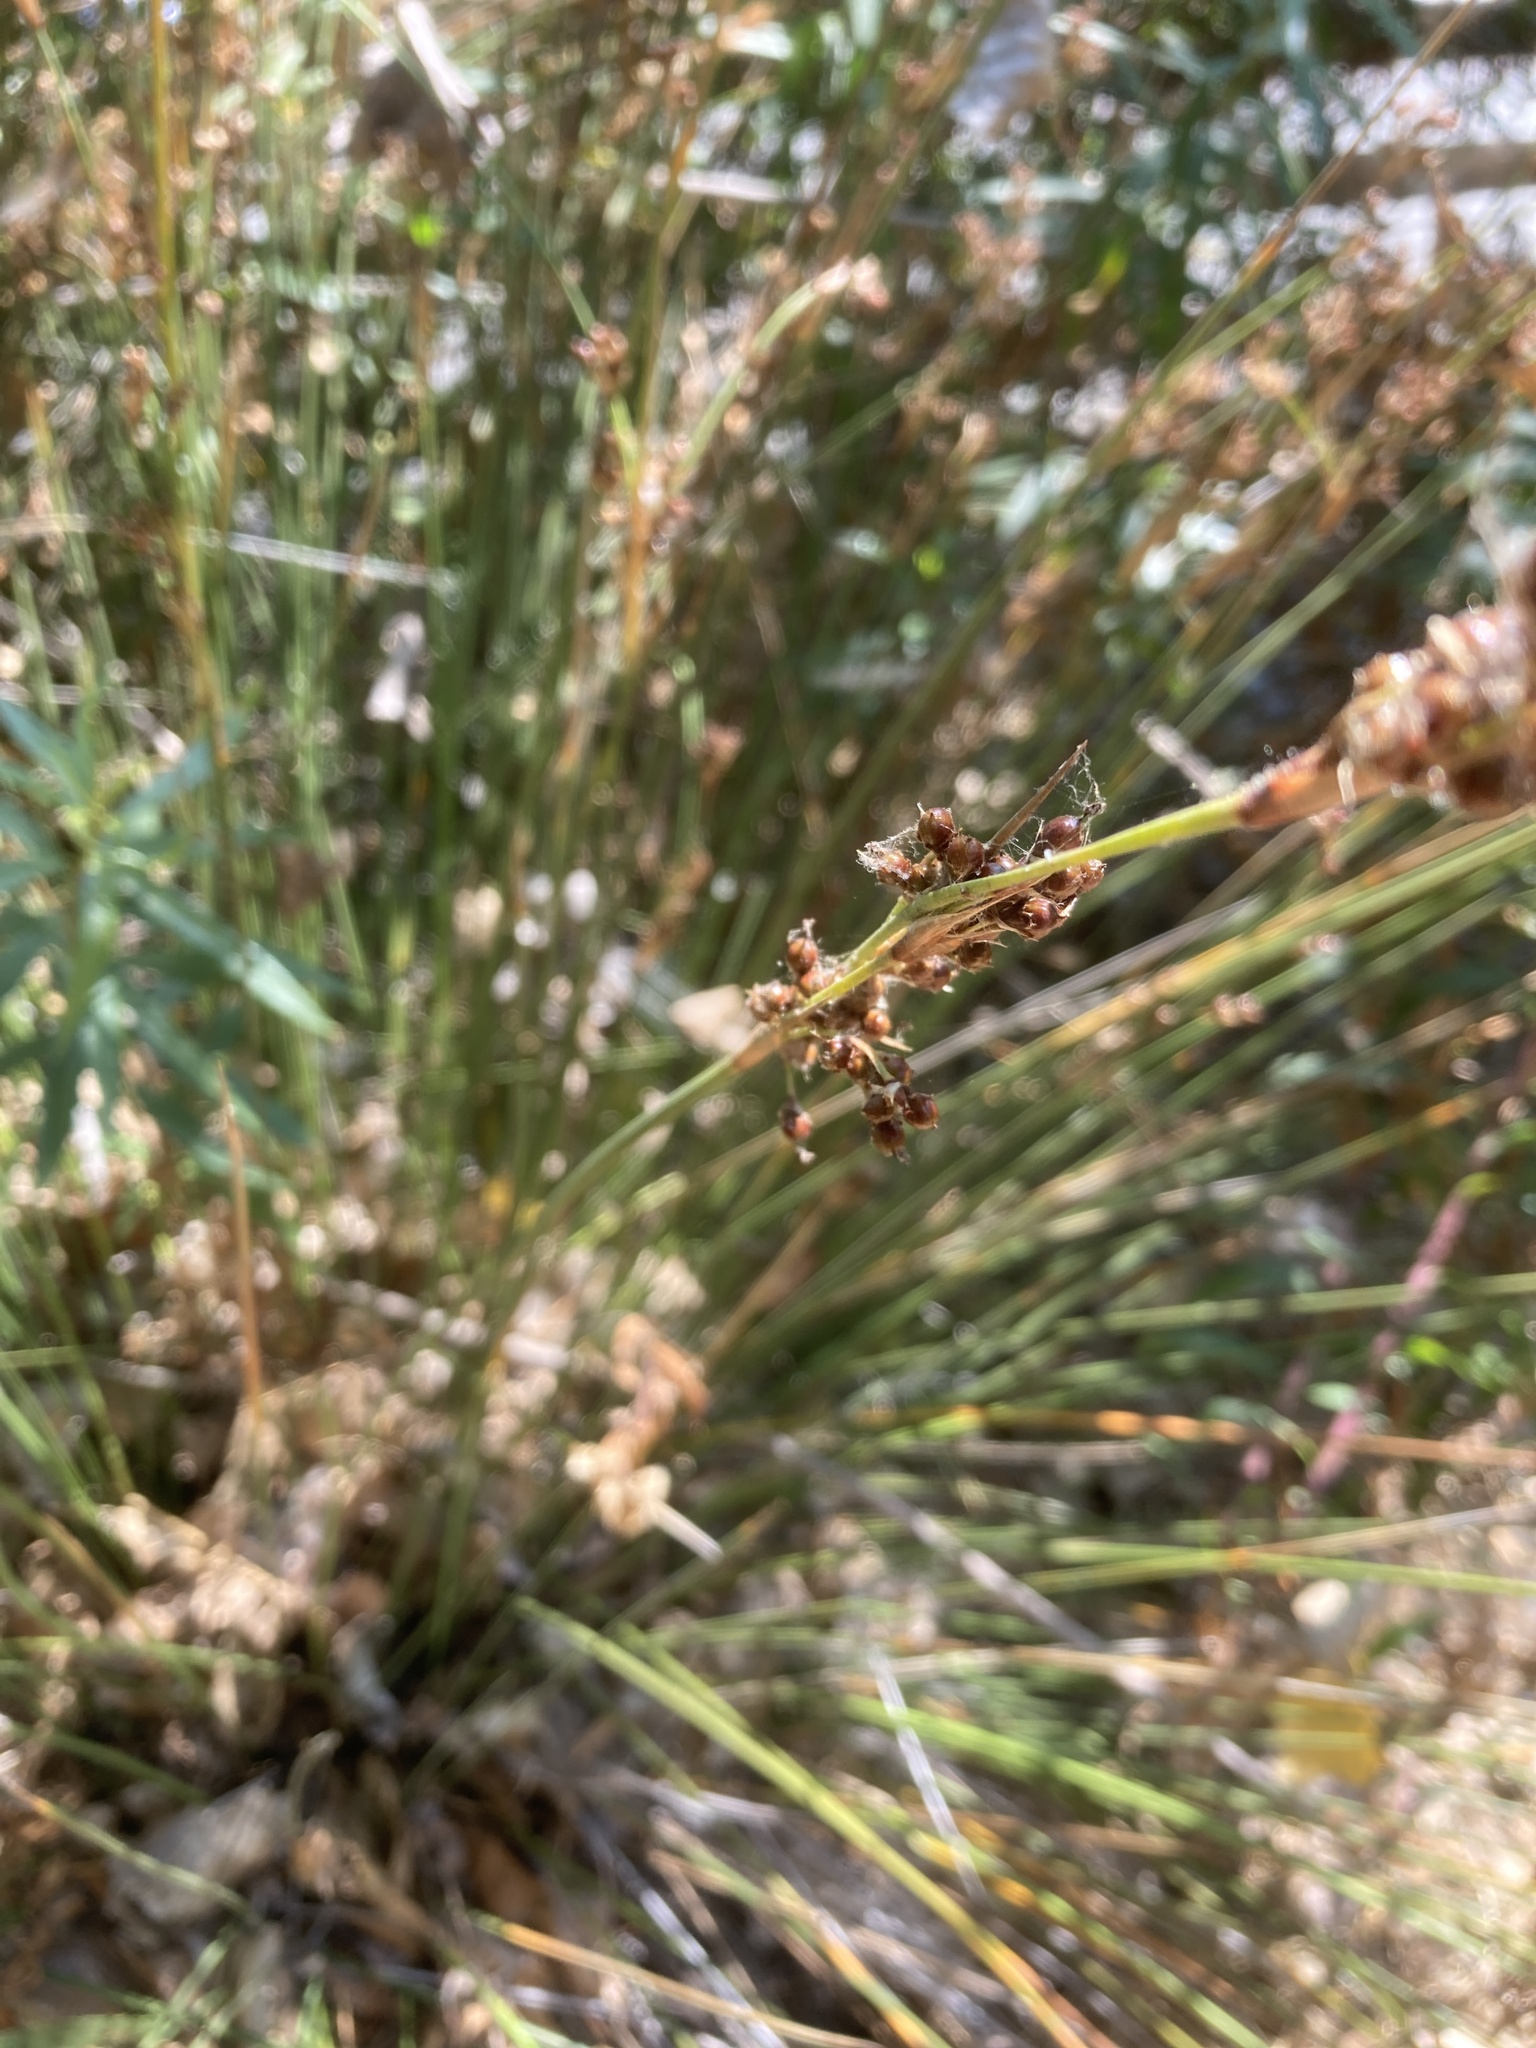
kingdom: Plantae
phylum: Tracheophyta
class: Liliopsida
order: Poales
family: Juncaceae
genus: Juncus
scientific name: Juncus acutus
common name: Sharp rush
